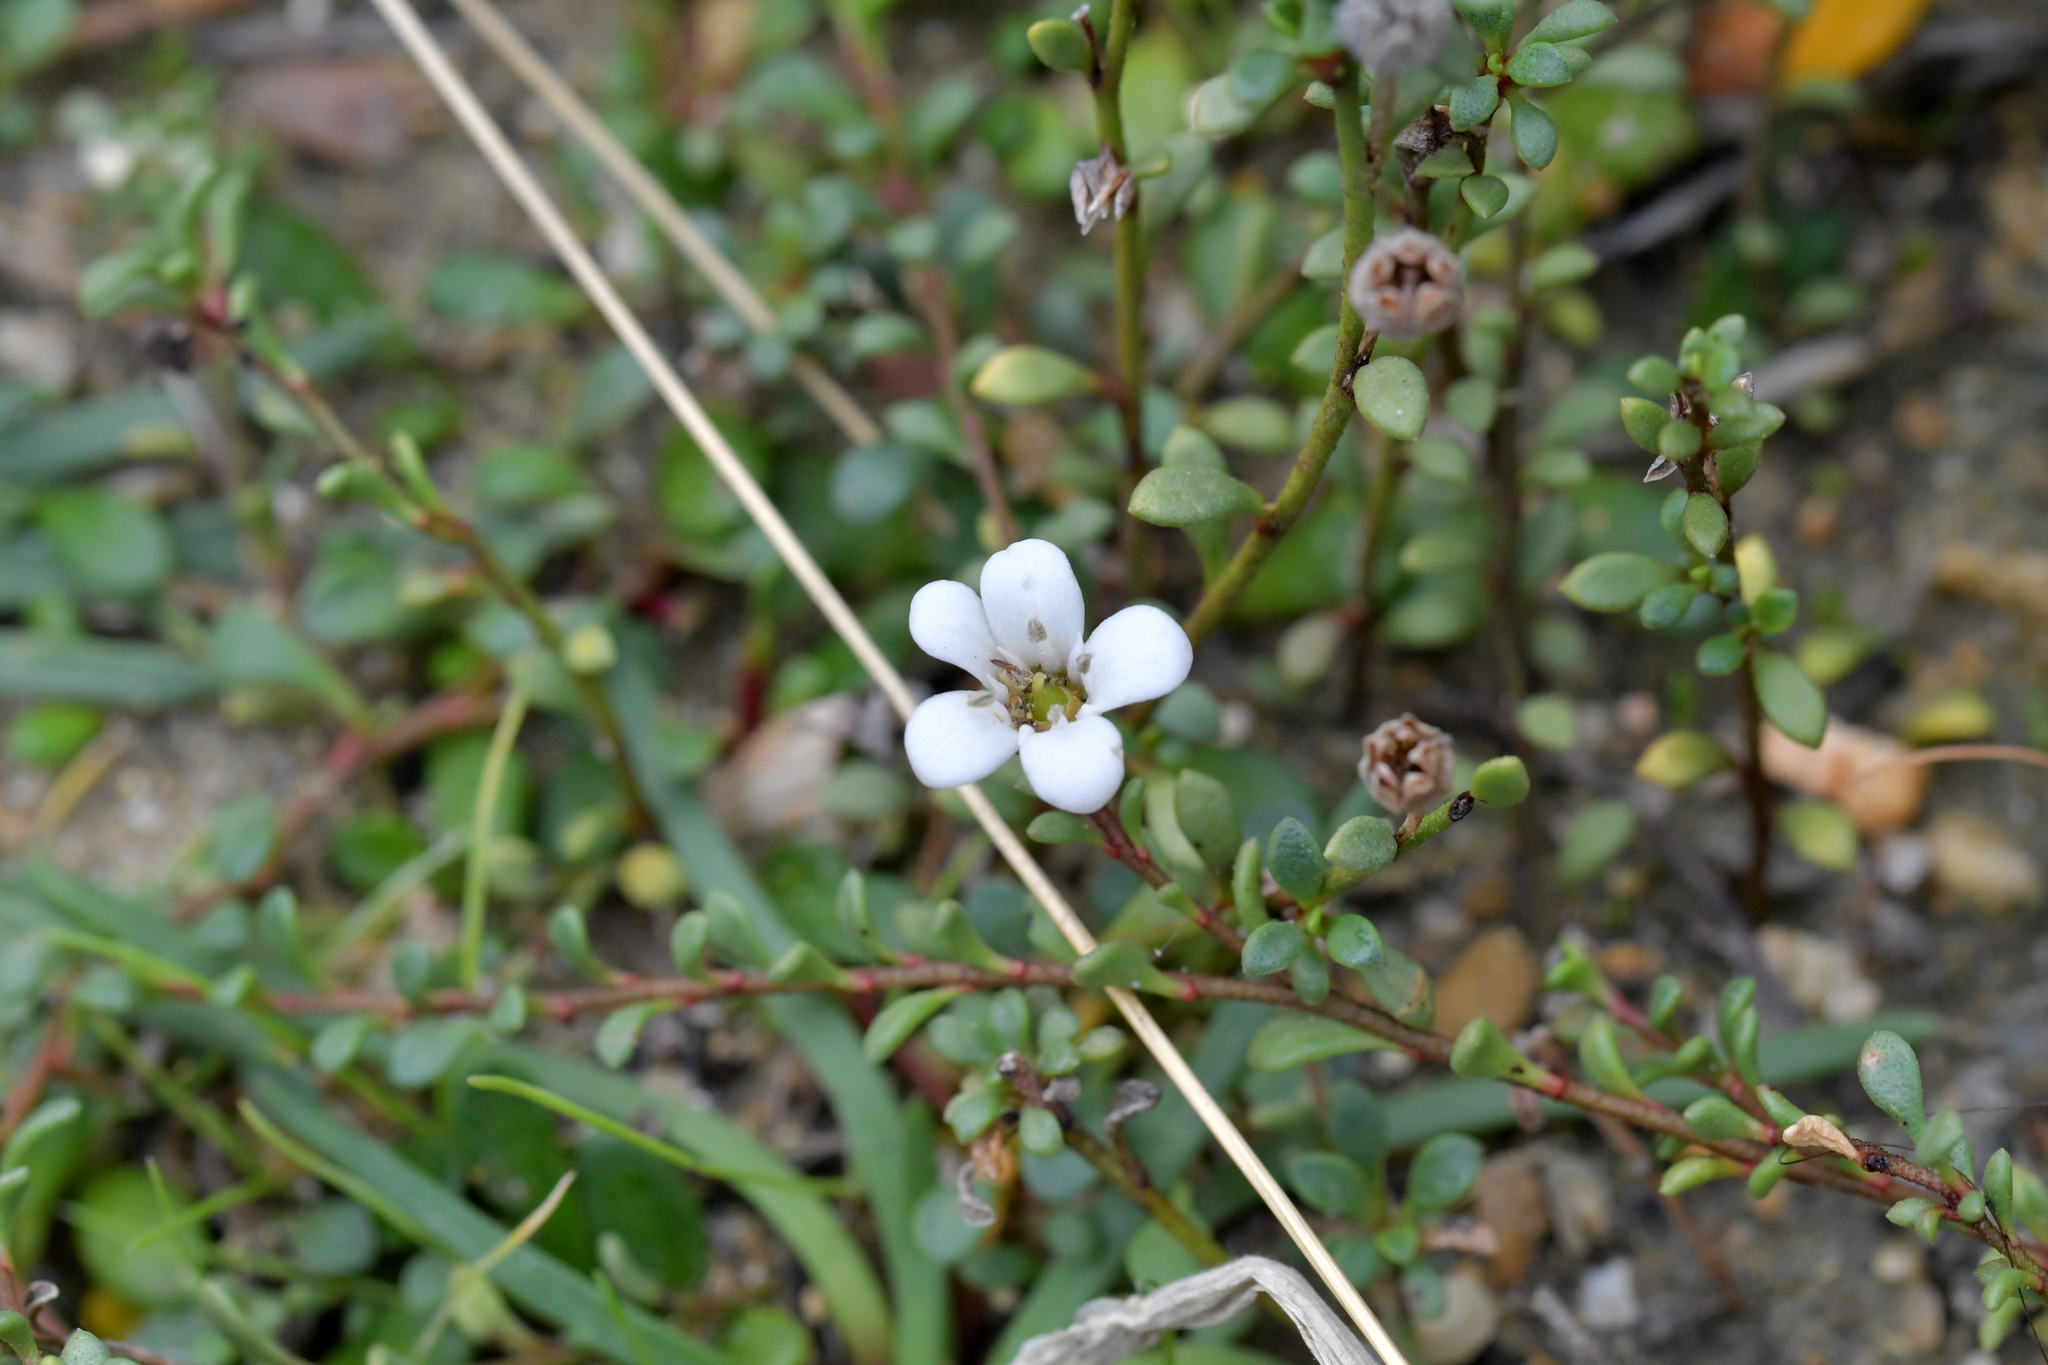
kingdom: Plantae
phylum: Tracheophyta
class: Magnoliopsida
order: Ericales
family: Primulaceae
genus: Samolus
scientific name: Samolus repens
